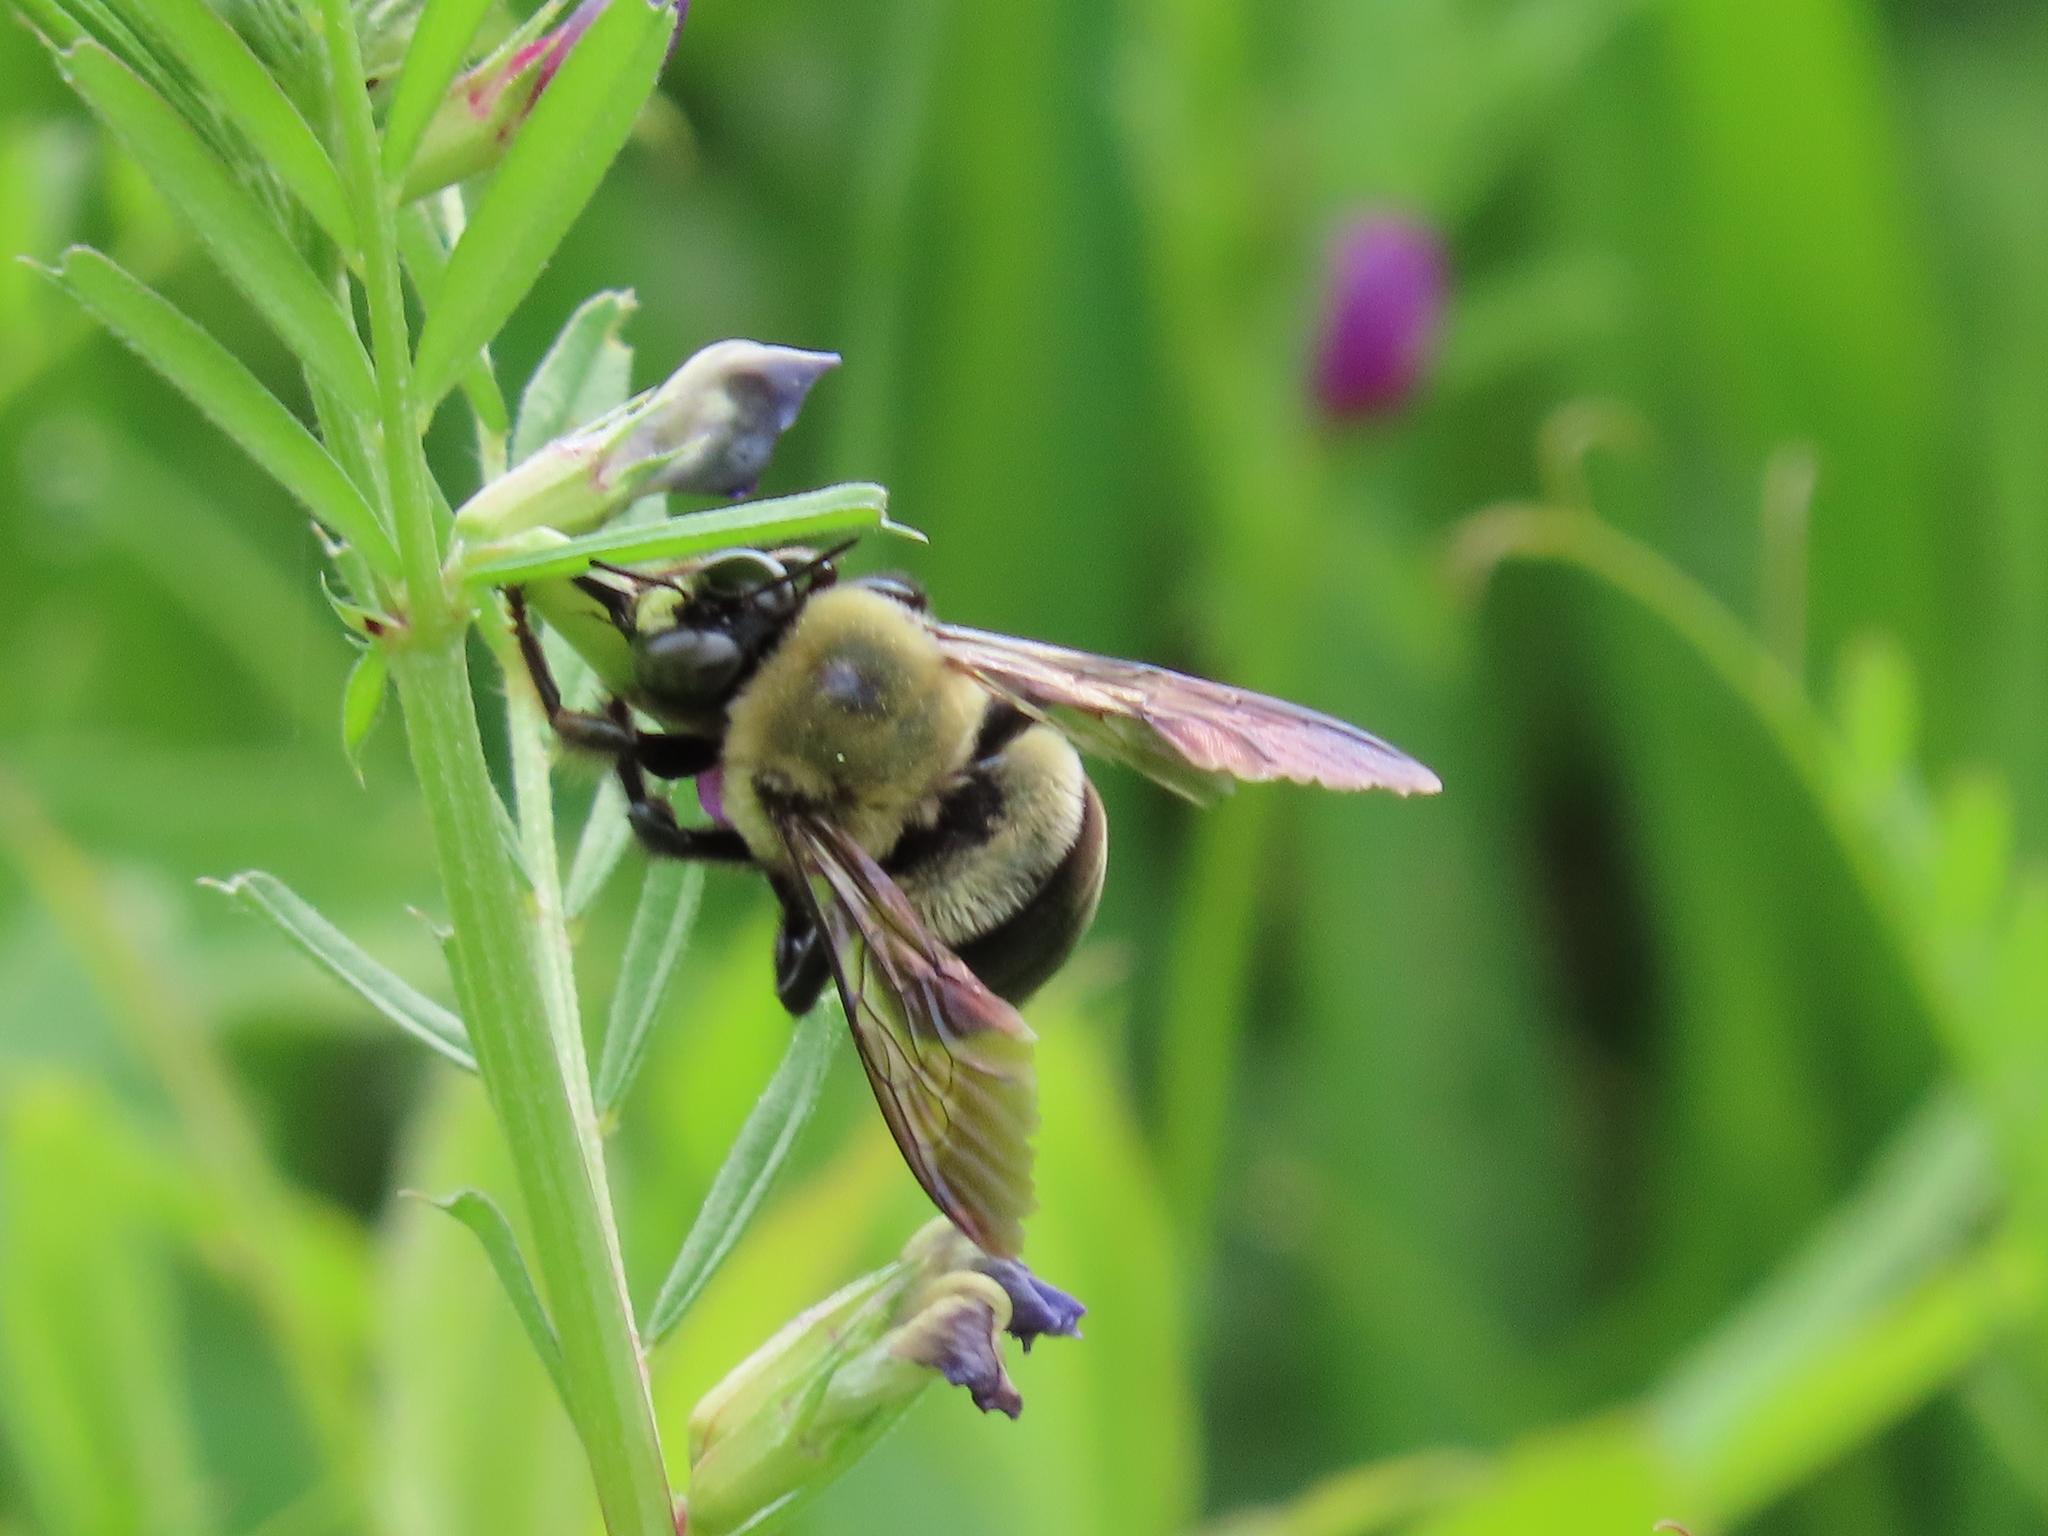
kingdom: Animalia
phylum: Arthropoda
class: Insecta
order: Hymenoptera
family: Apidae
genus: Xylocopa
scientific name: Xylocopa virginica
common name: Carpenter bee
